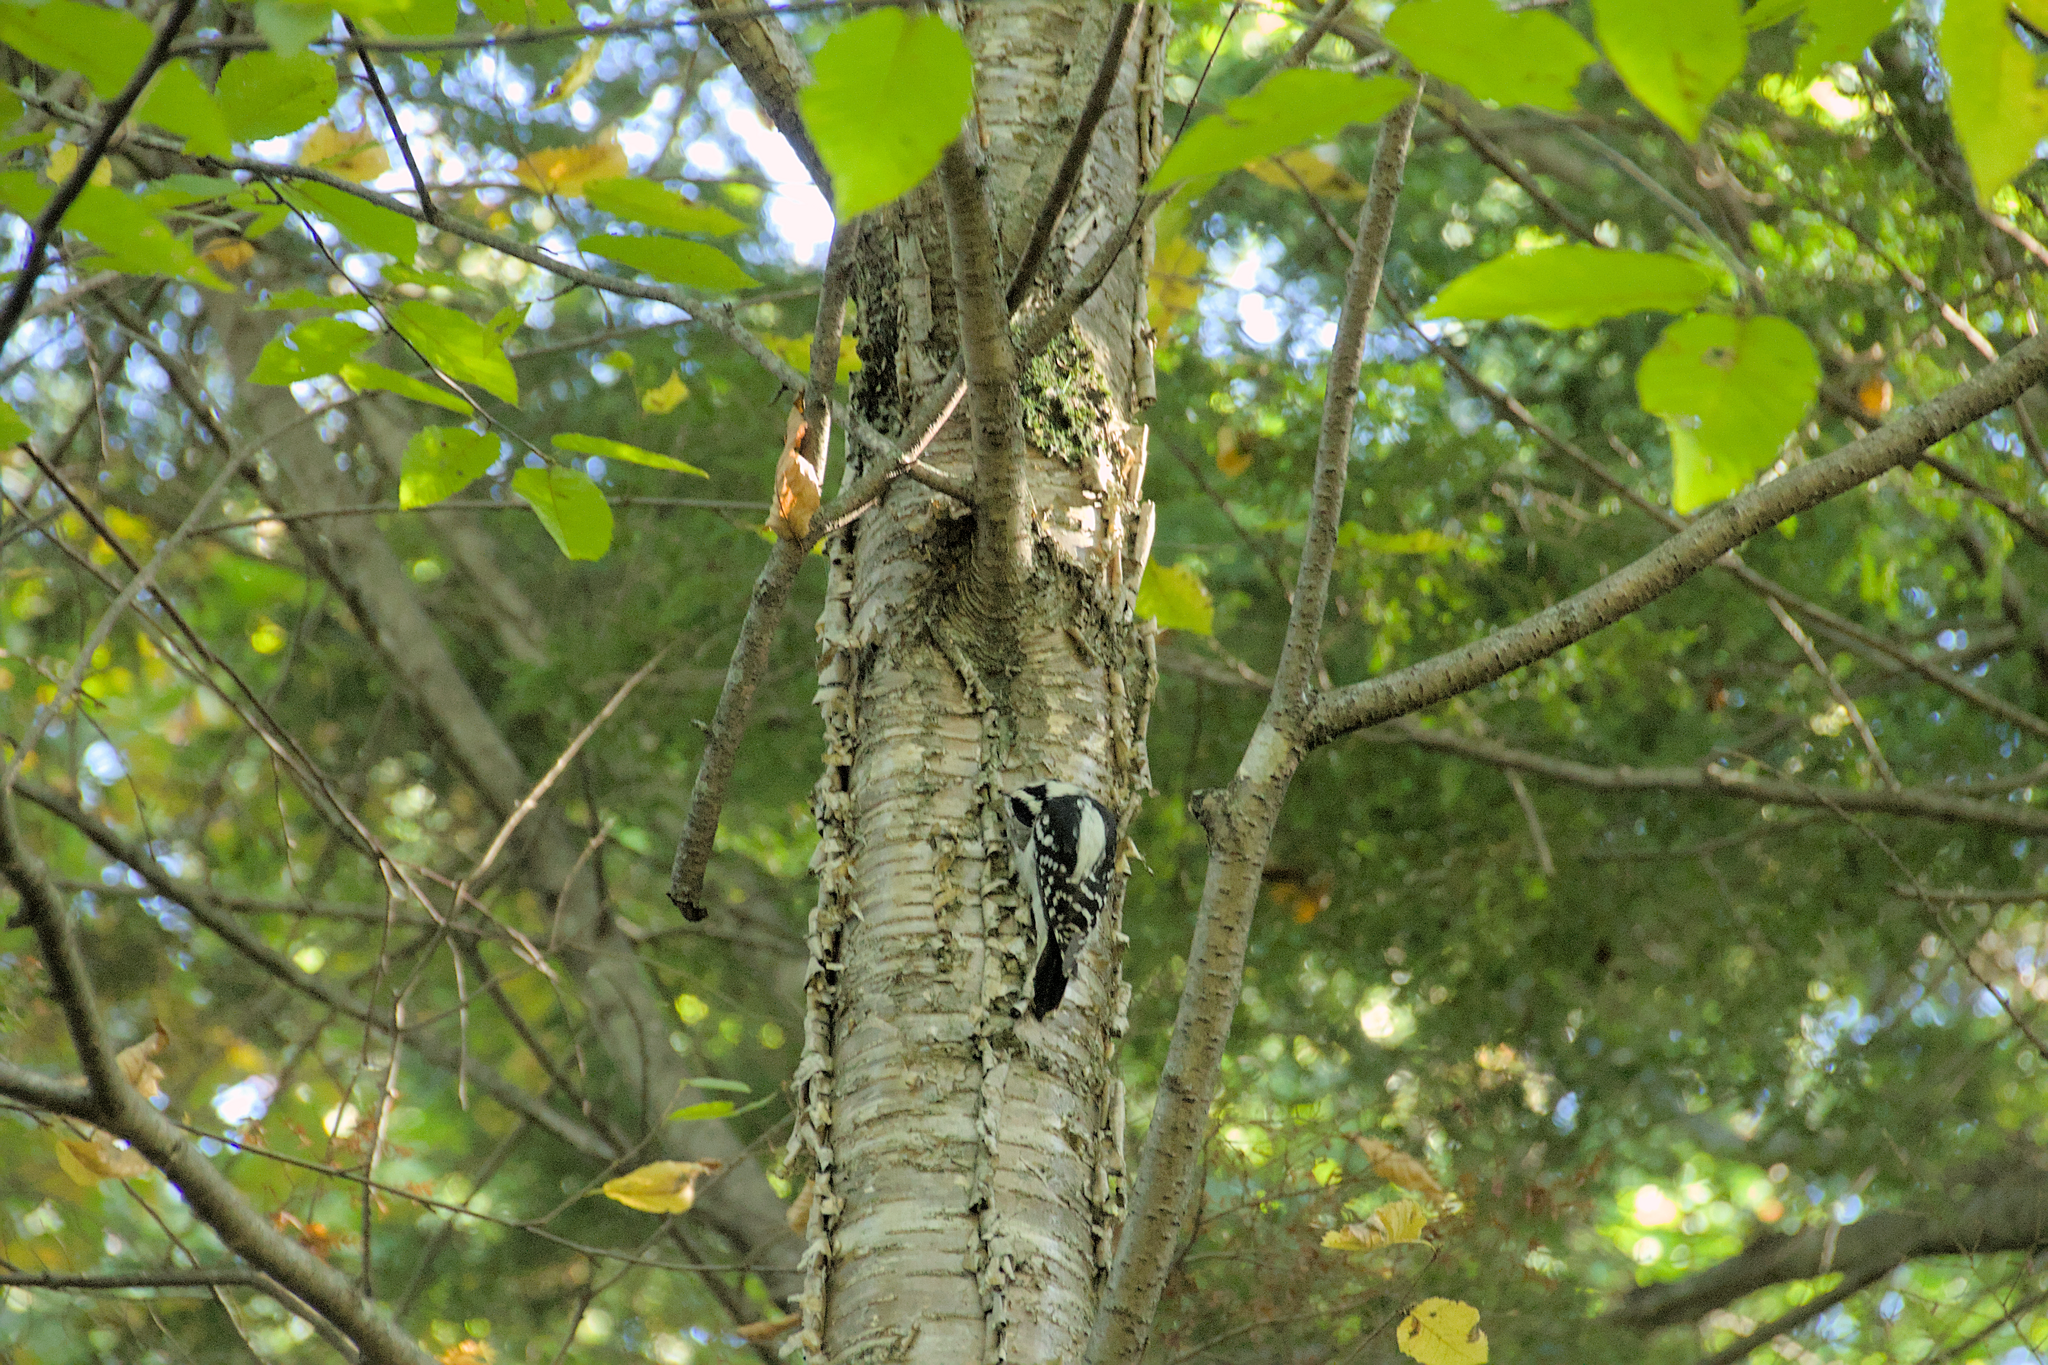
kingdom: Plantae
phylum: Tracheophyta
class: Magnoliopsida
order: Fagales
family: Betulaceae
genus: Betula
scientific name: Betula alleghaniensis
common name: Yellow birch
